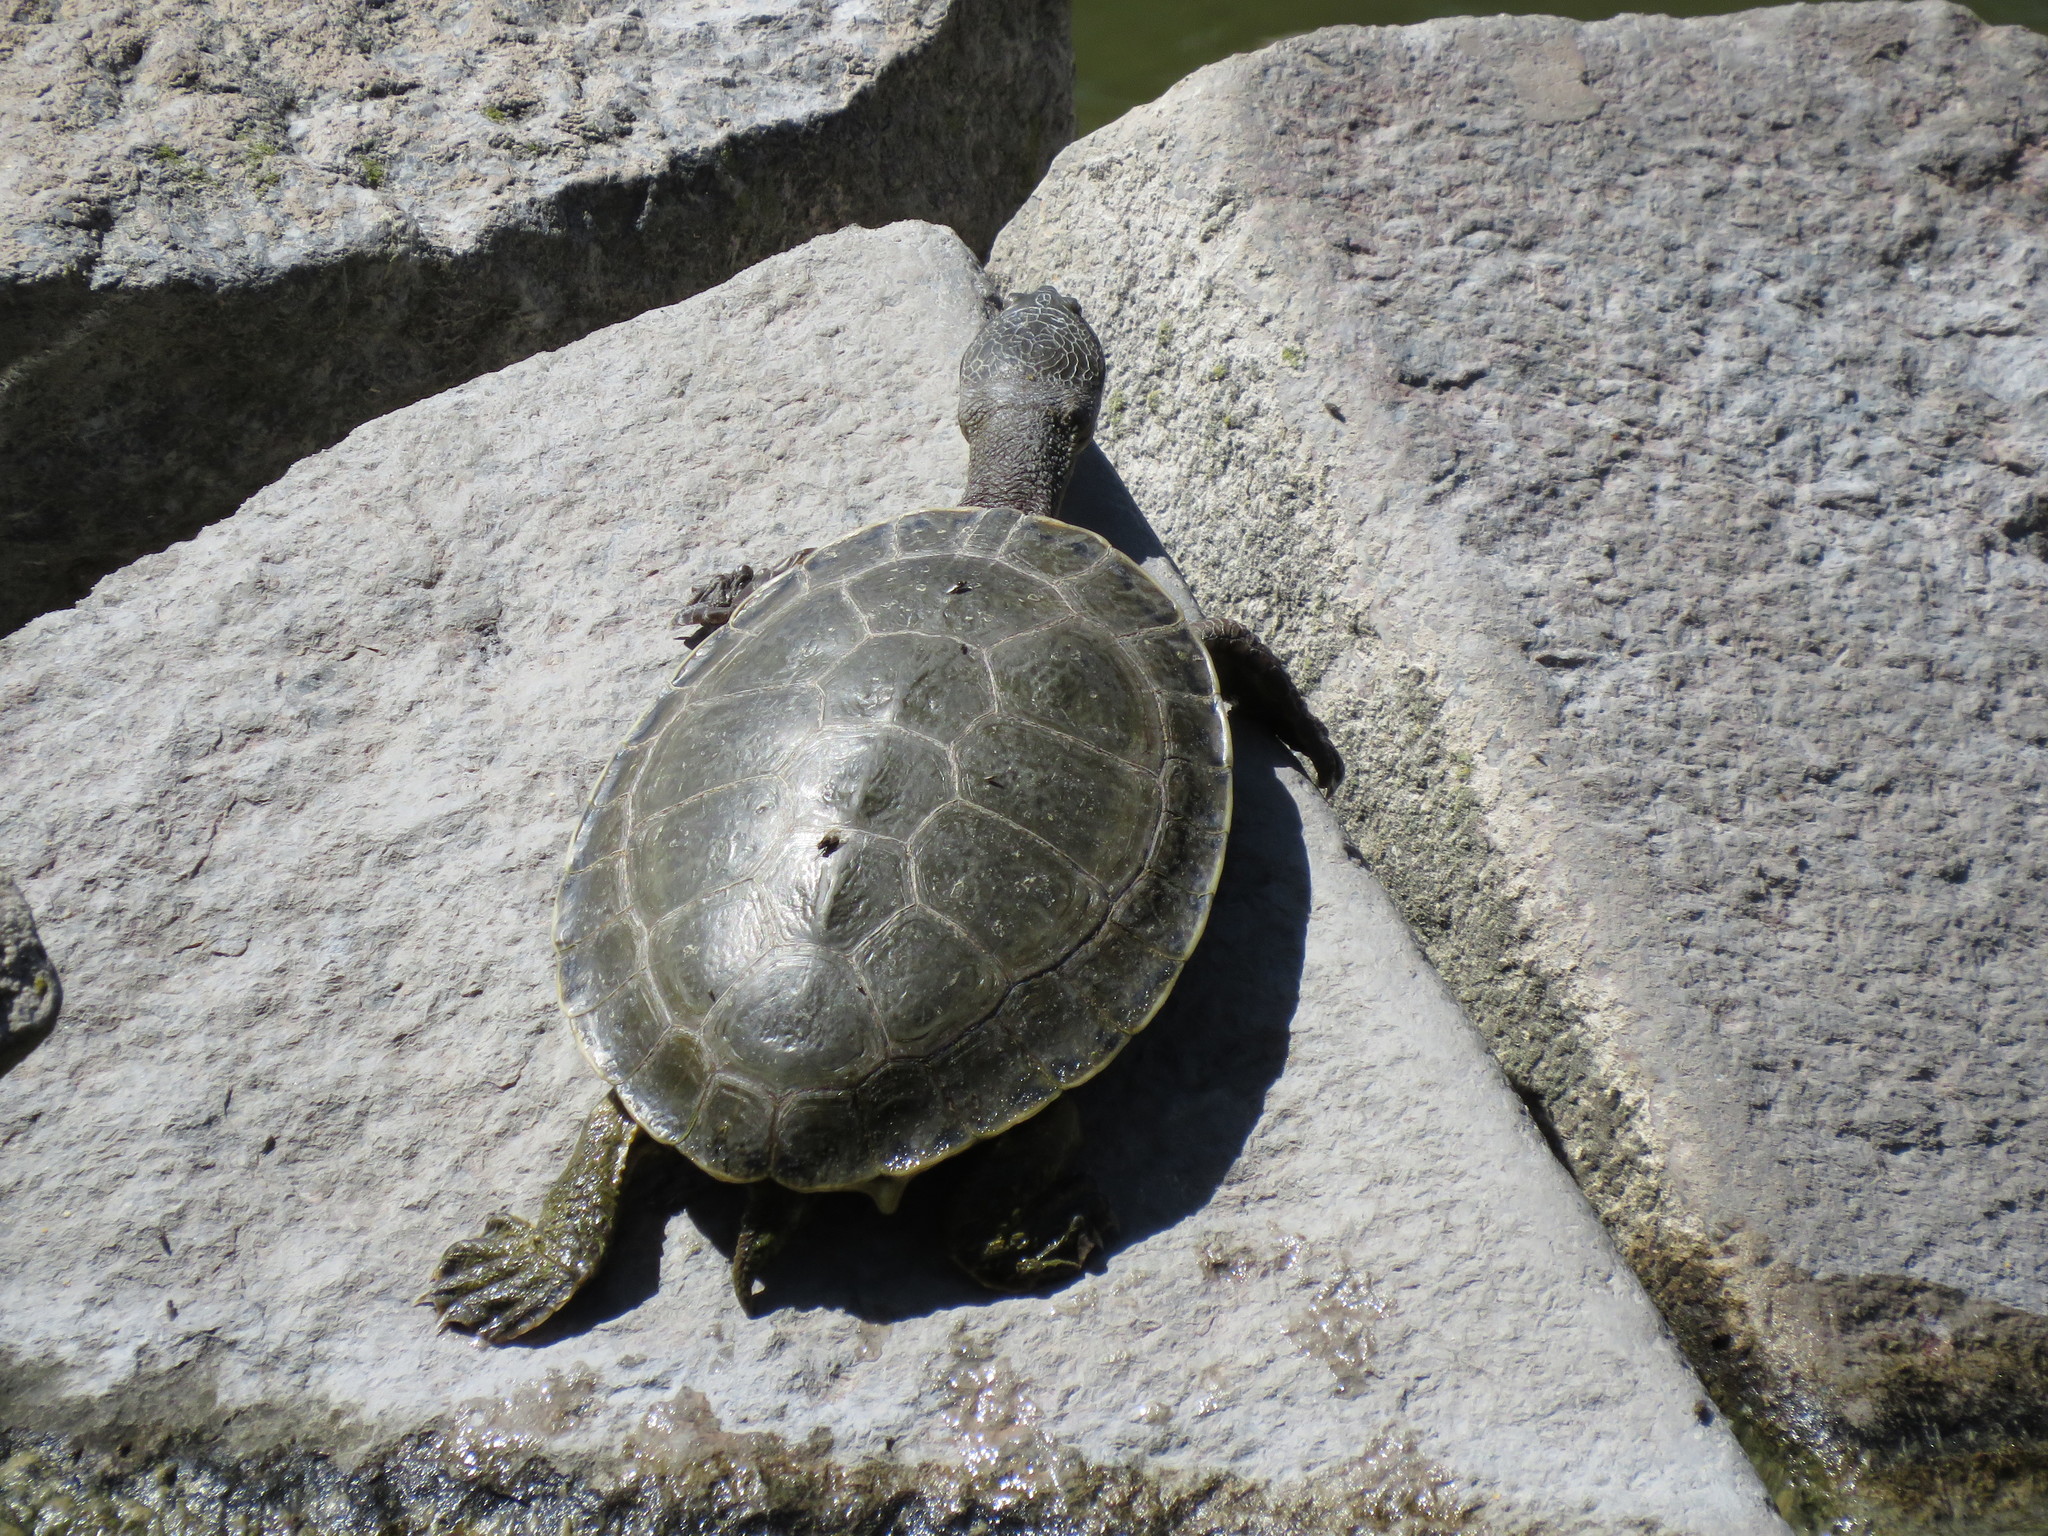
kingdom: Animalia
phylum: Chordata
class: Testudines
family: Chelidae
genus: Phrynops
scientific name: Phrynops hilarii
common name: Side-necked turtle of saint hillaire
